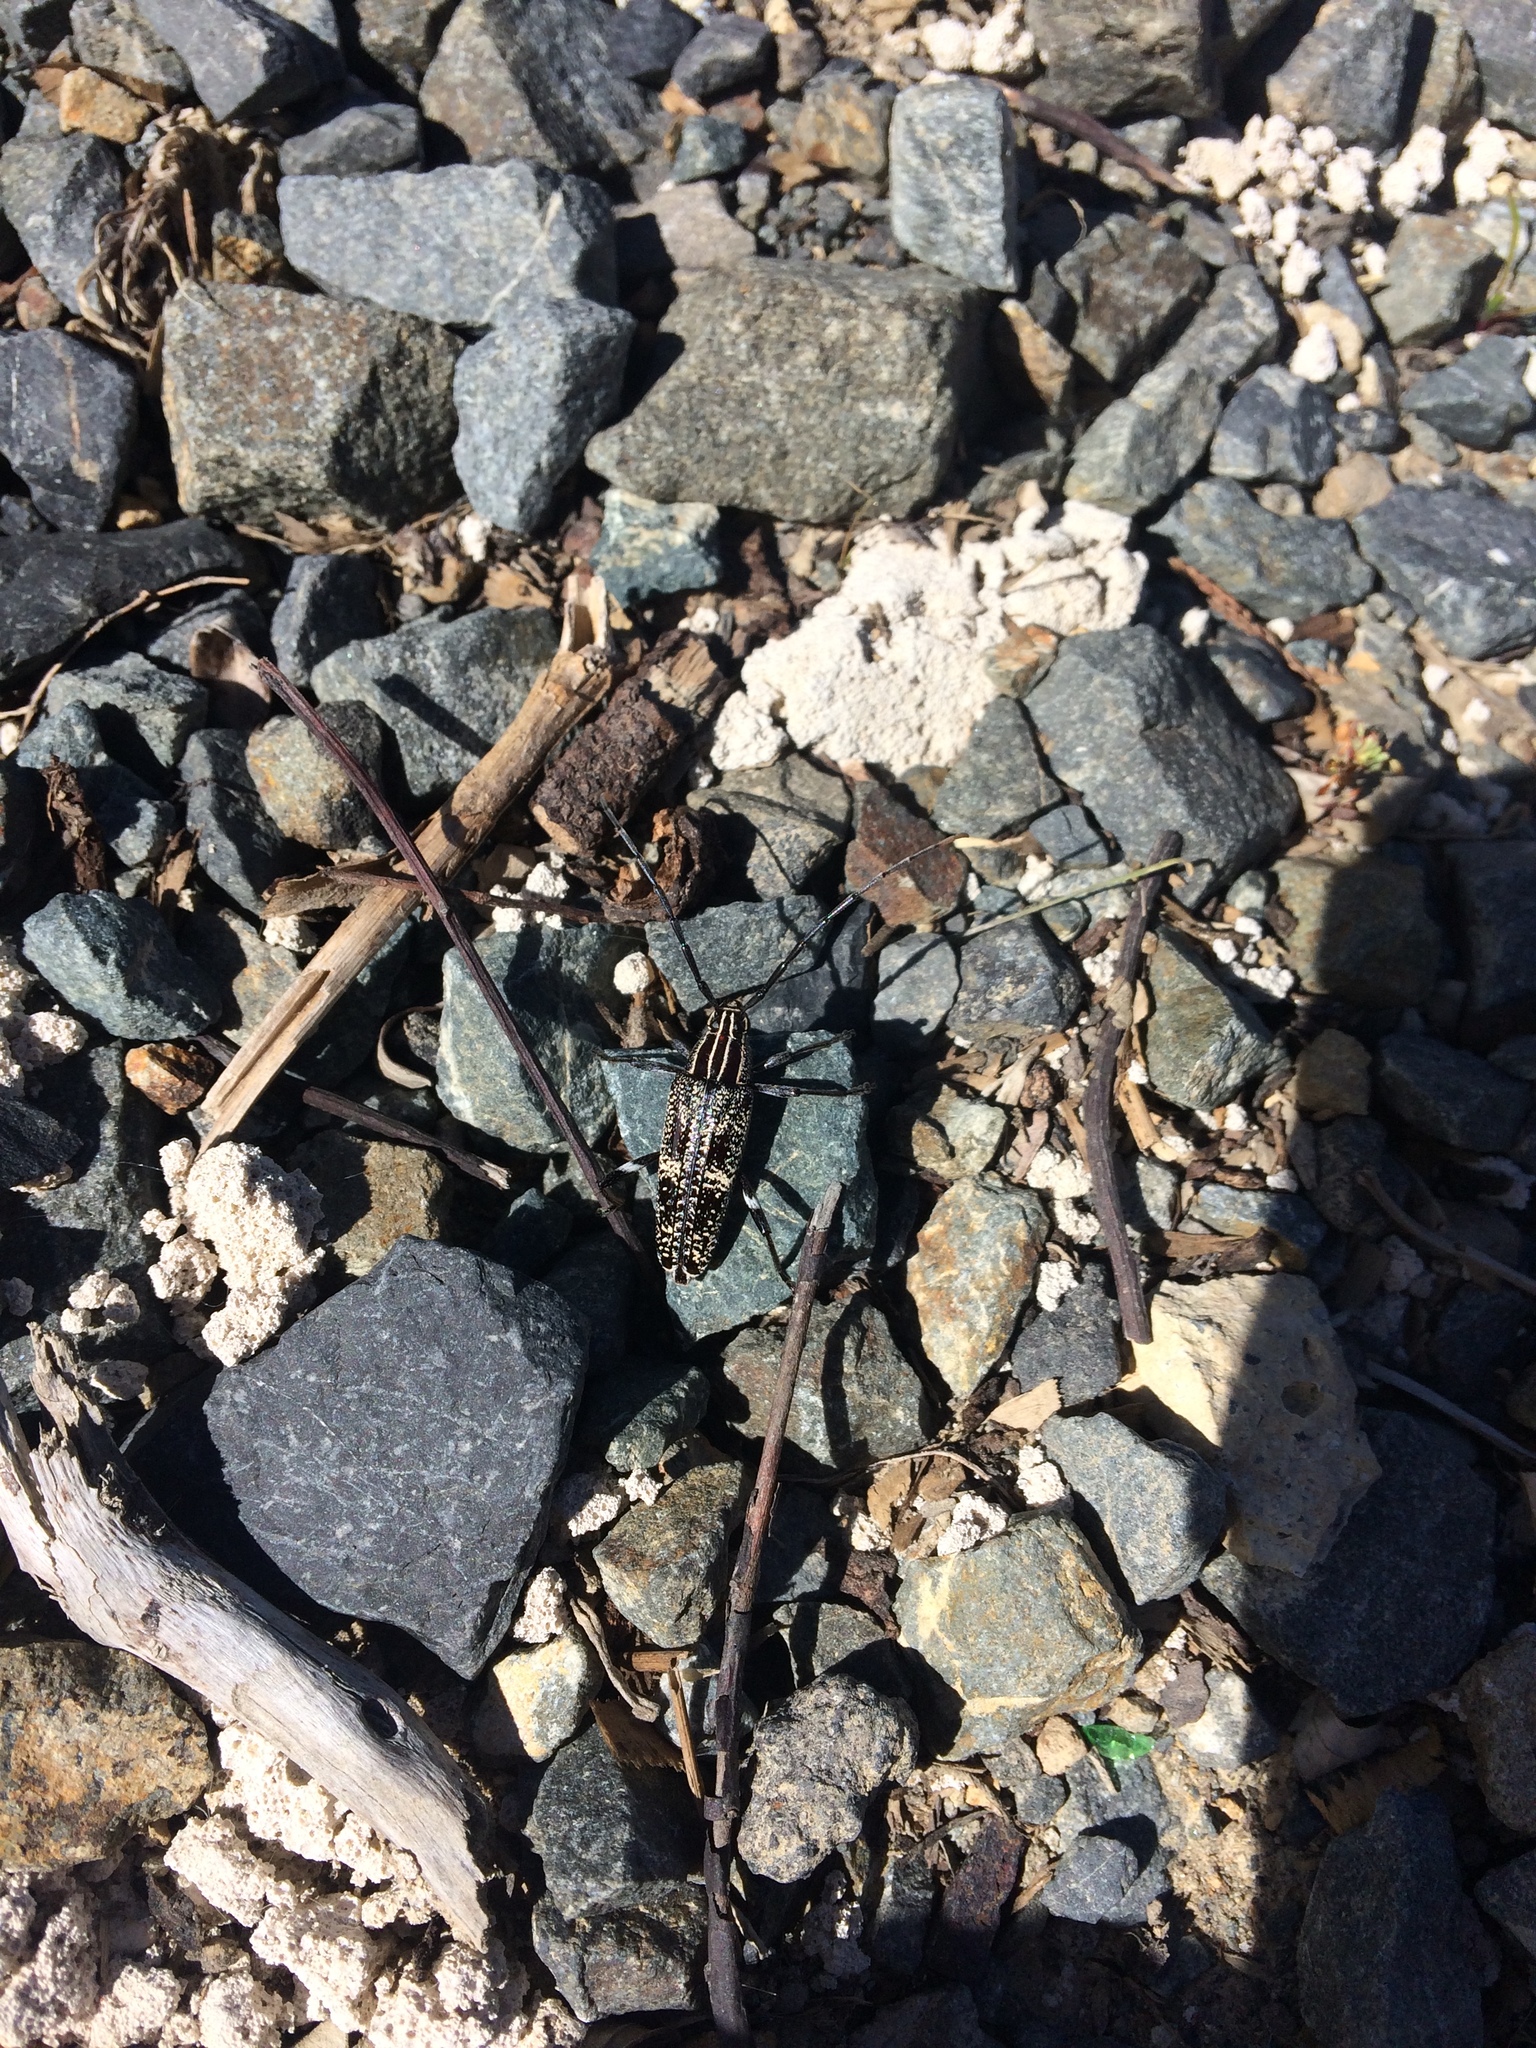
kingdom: Animalia
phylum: Arthropoda
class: Insecta
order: Coleoptera
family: Cerambycidae
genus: Coptomma
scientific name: Coptomma variegatum
